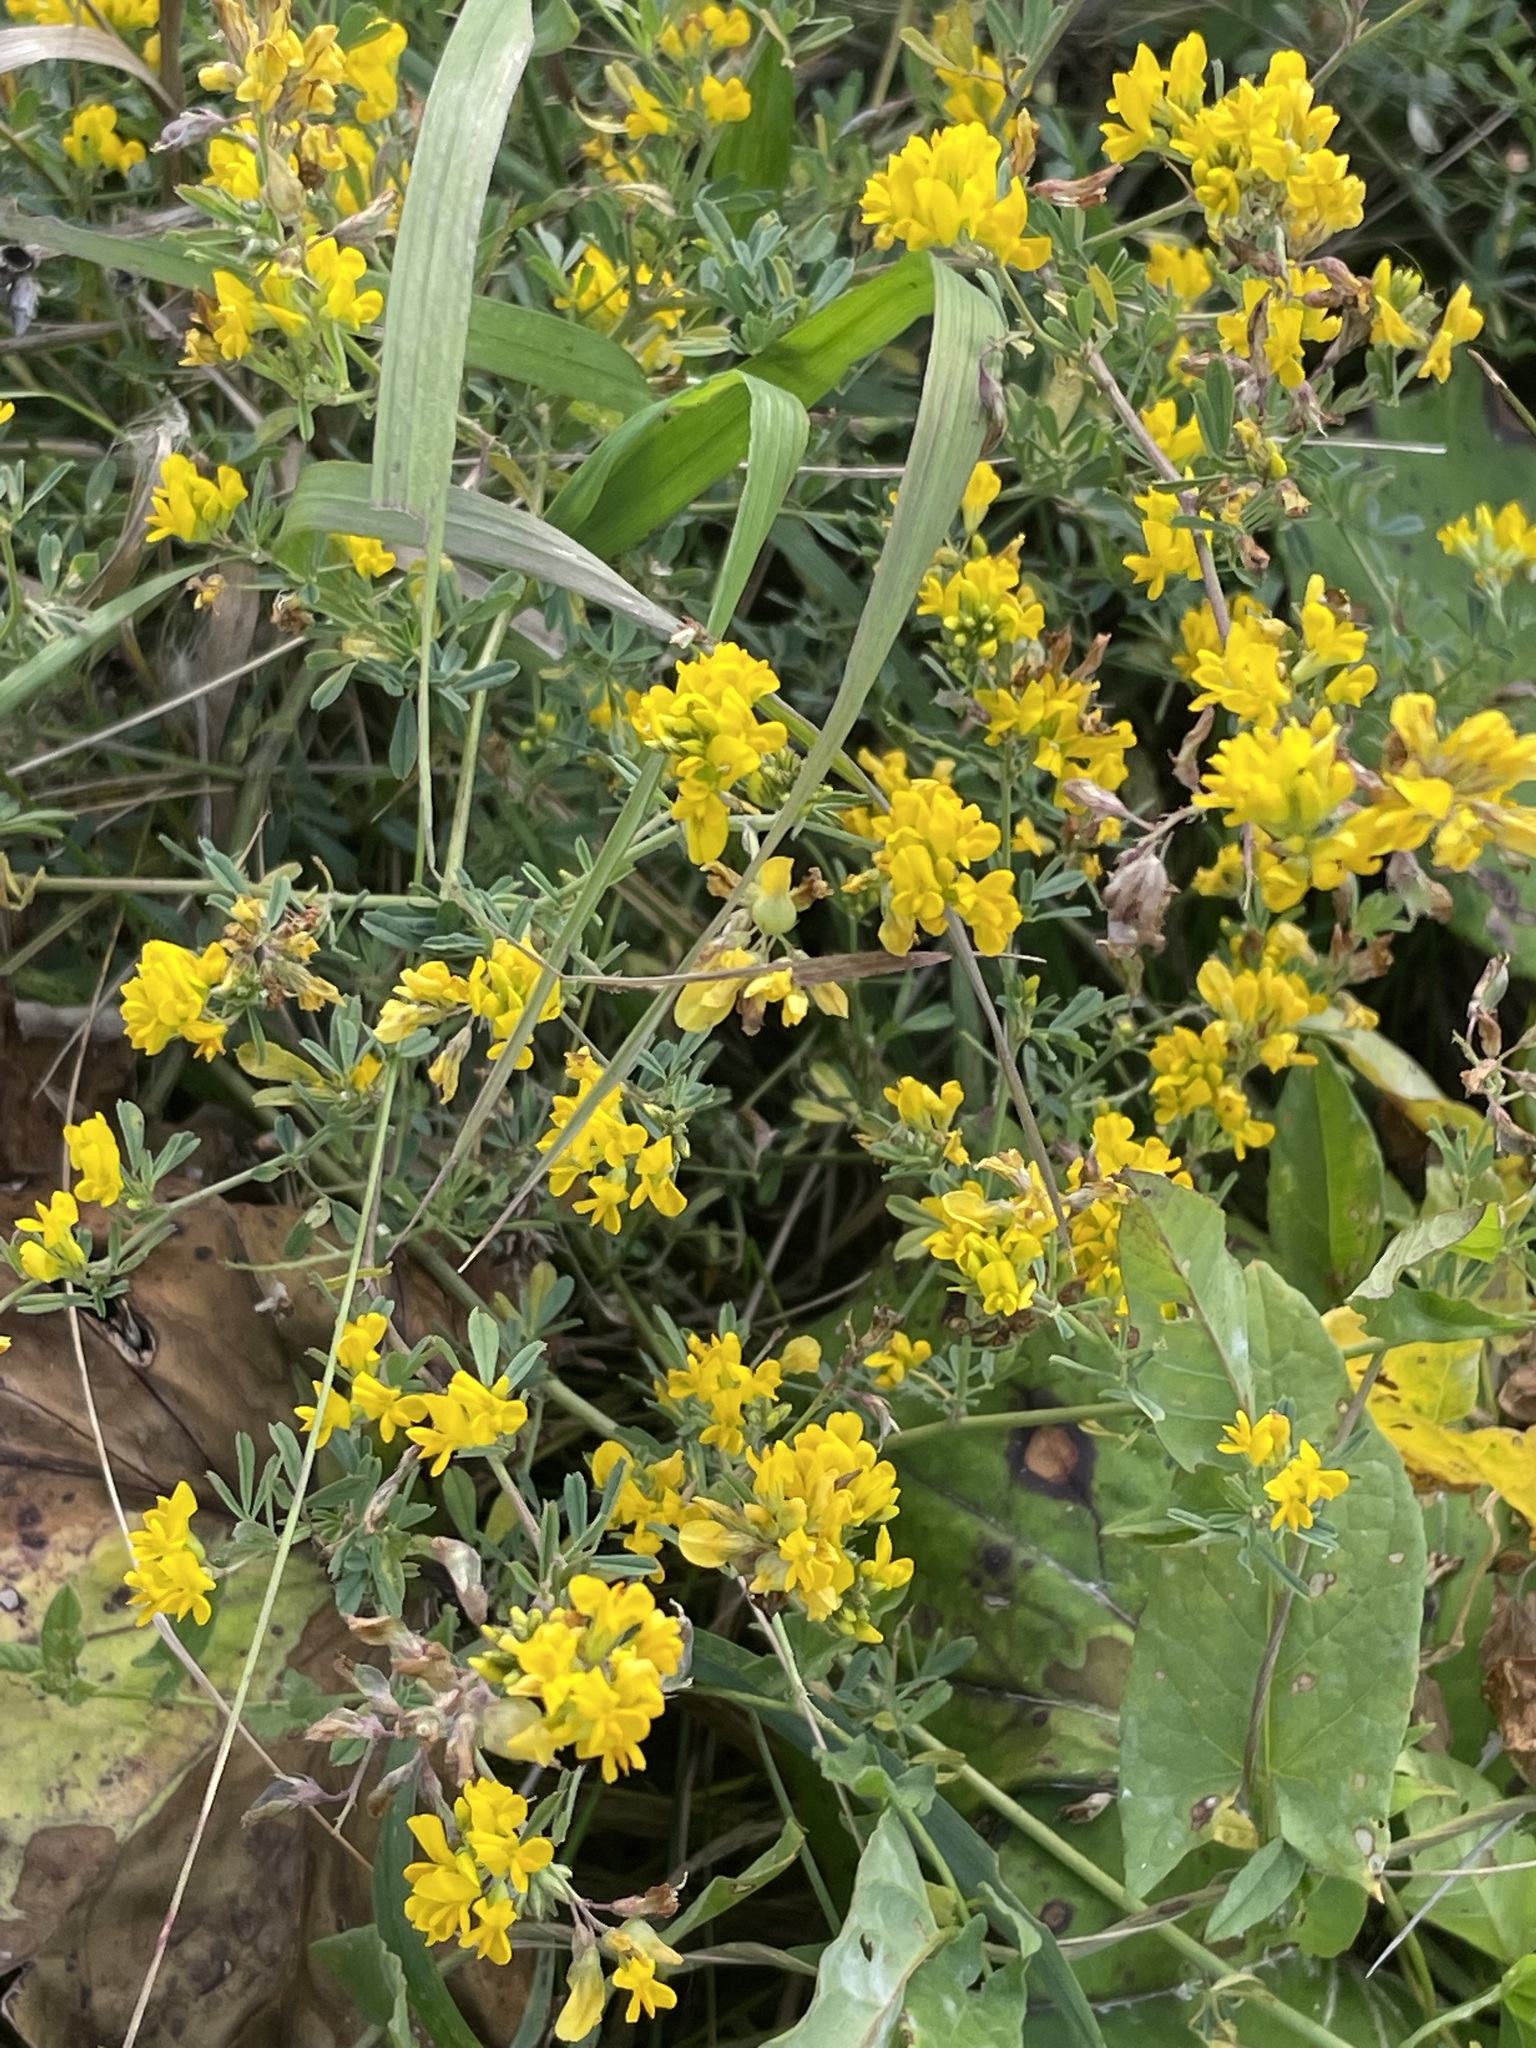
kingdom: Plantae
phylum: Tracheophyta
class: Magnoliopsida
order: Fabales
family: Fabaceae
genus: Medicago
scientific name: Medicago falcata
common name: Sickle medick
